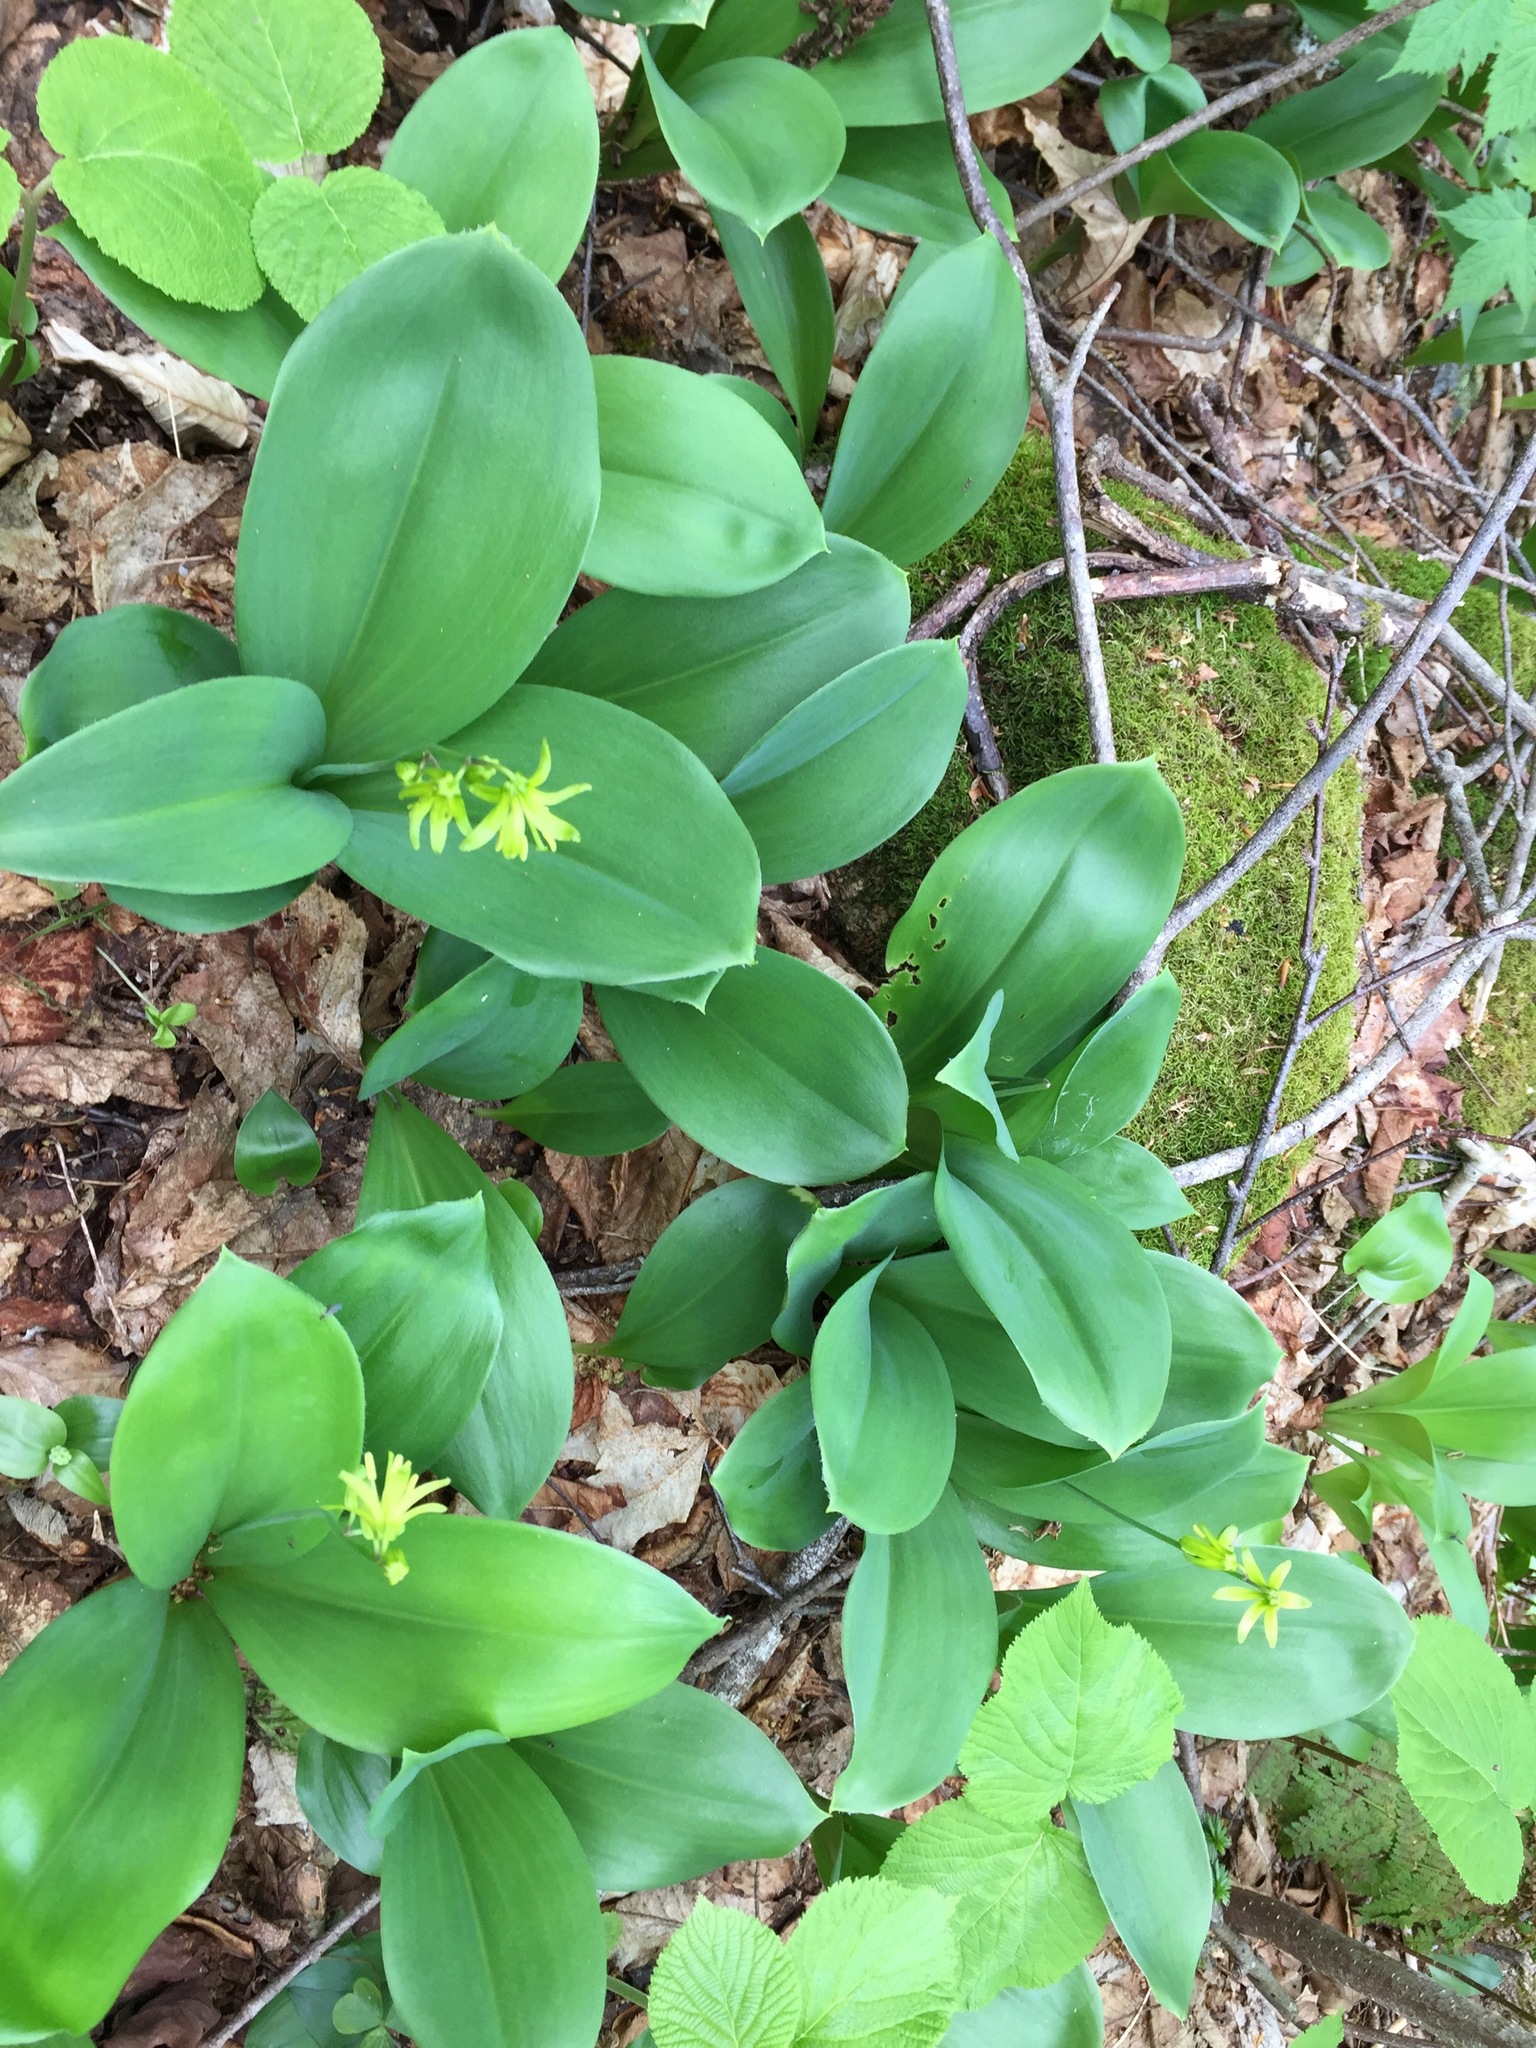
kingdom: Plantae
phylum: Tracheophyta
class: Liliopsida
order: Liliales
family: Liliaceae
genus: Clintonia
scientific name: Clintonia borealis
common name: Yellow clintonia
